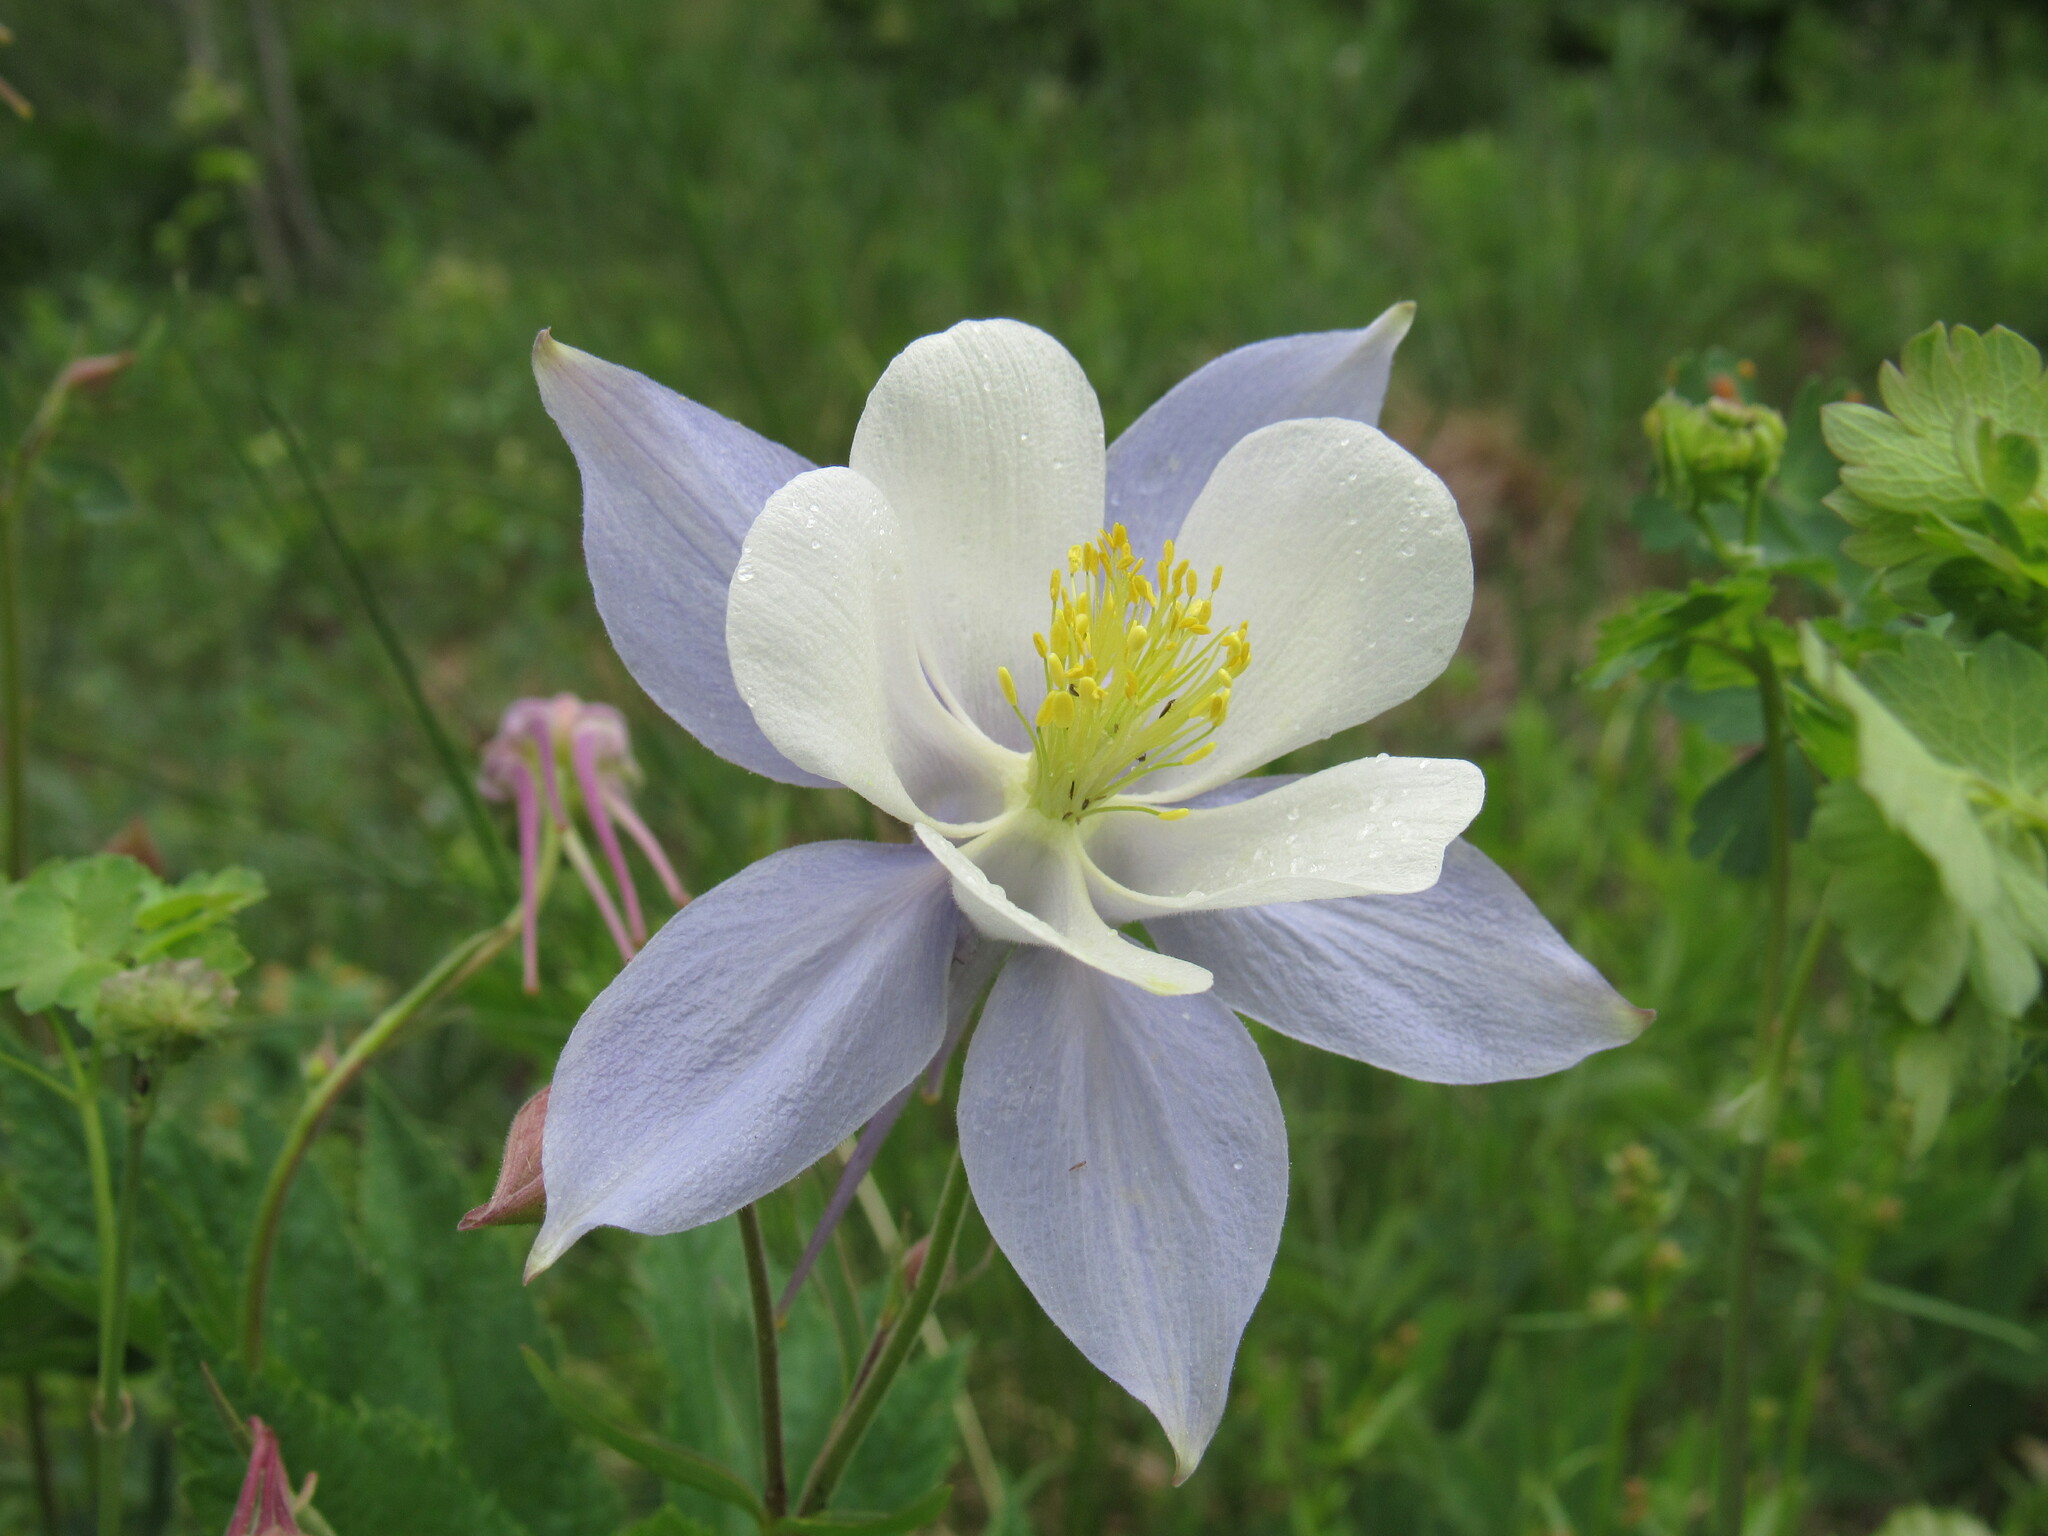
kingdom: Plantae
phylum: Tracheophyta
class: Magnoliopsida
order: Ranunculales
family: Ranunculaceae
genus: Aquilegia
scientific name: Aquilegia coerulea
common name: Rocky mountain columbine
